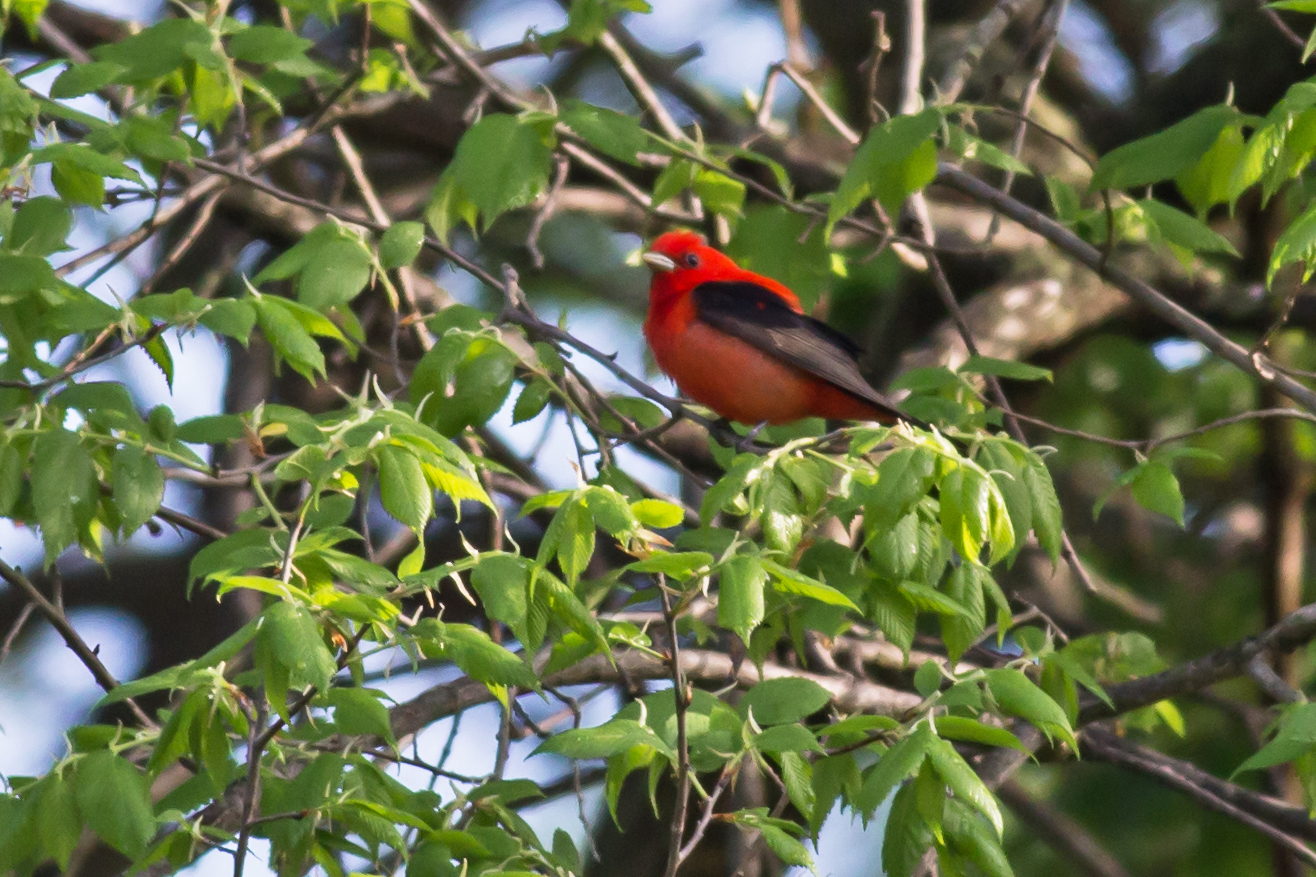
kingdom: Animalia
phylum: Chordata
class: Aves
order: Passeriformes
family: Cardinalidae
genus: Piranga
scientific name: Piranga olivacea
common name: Scarlet tanager
